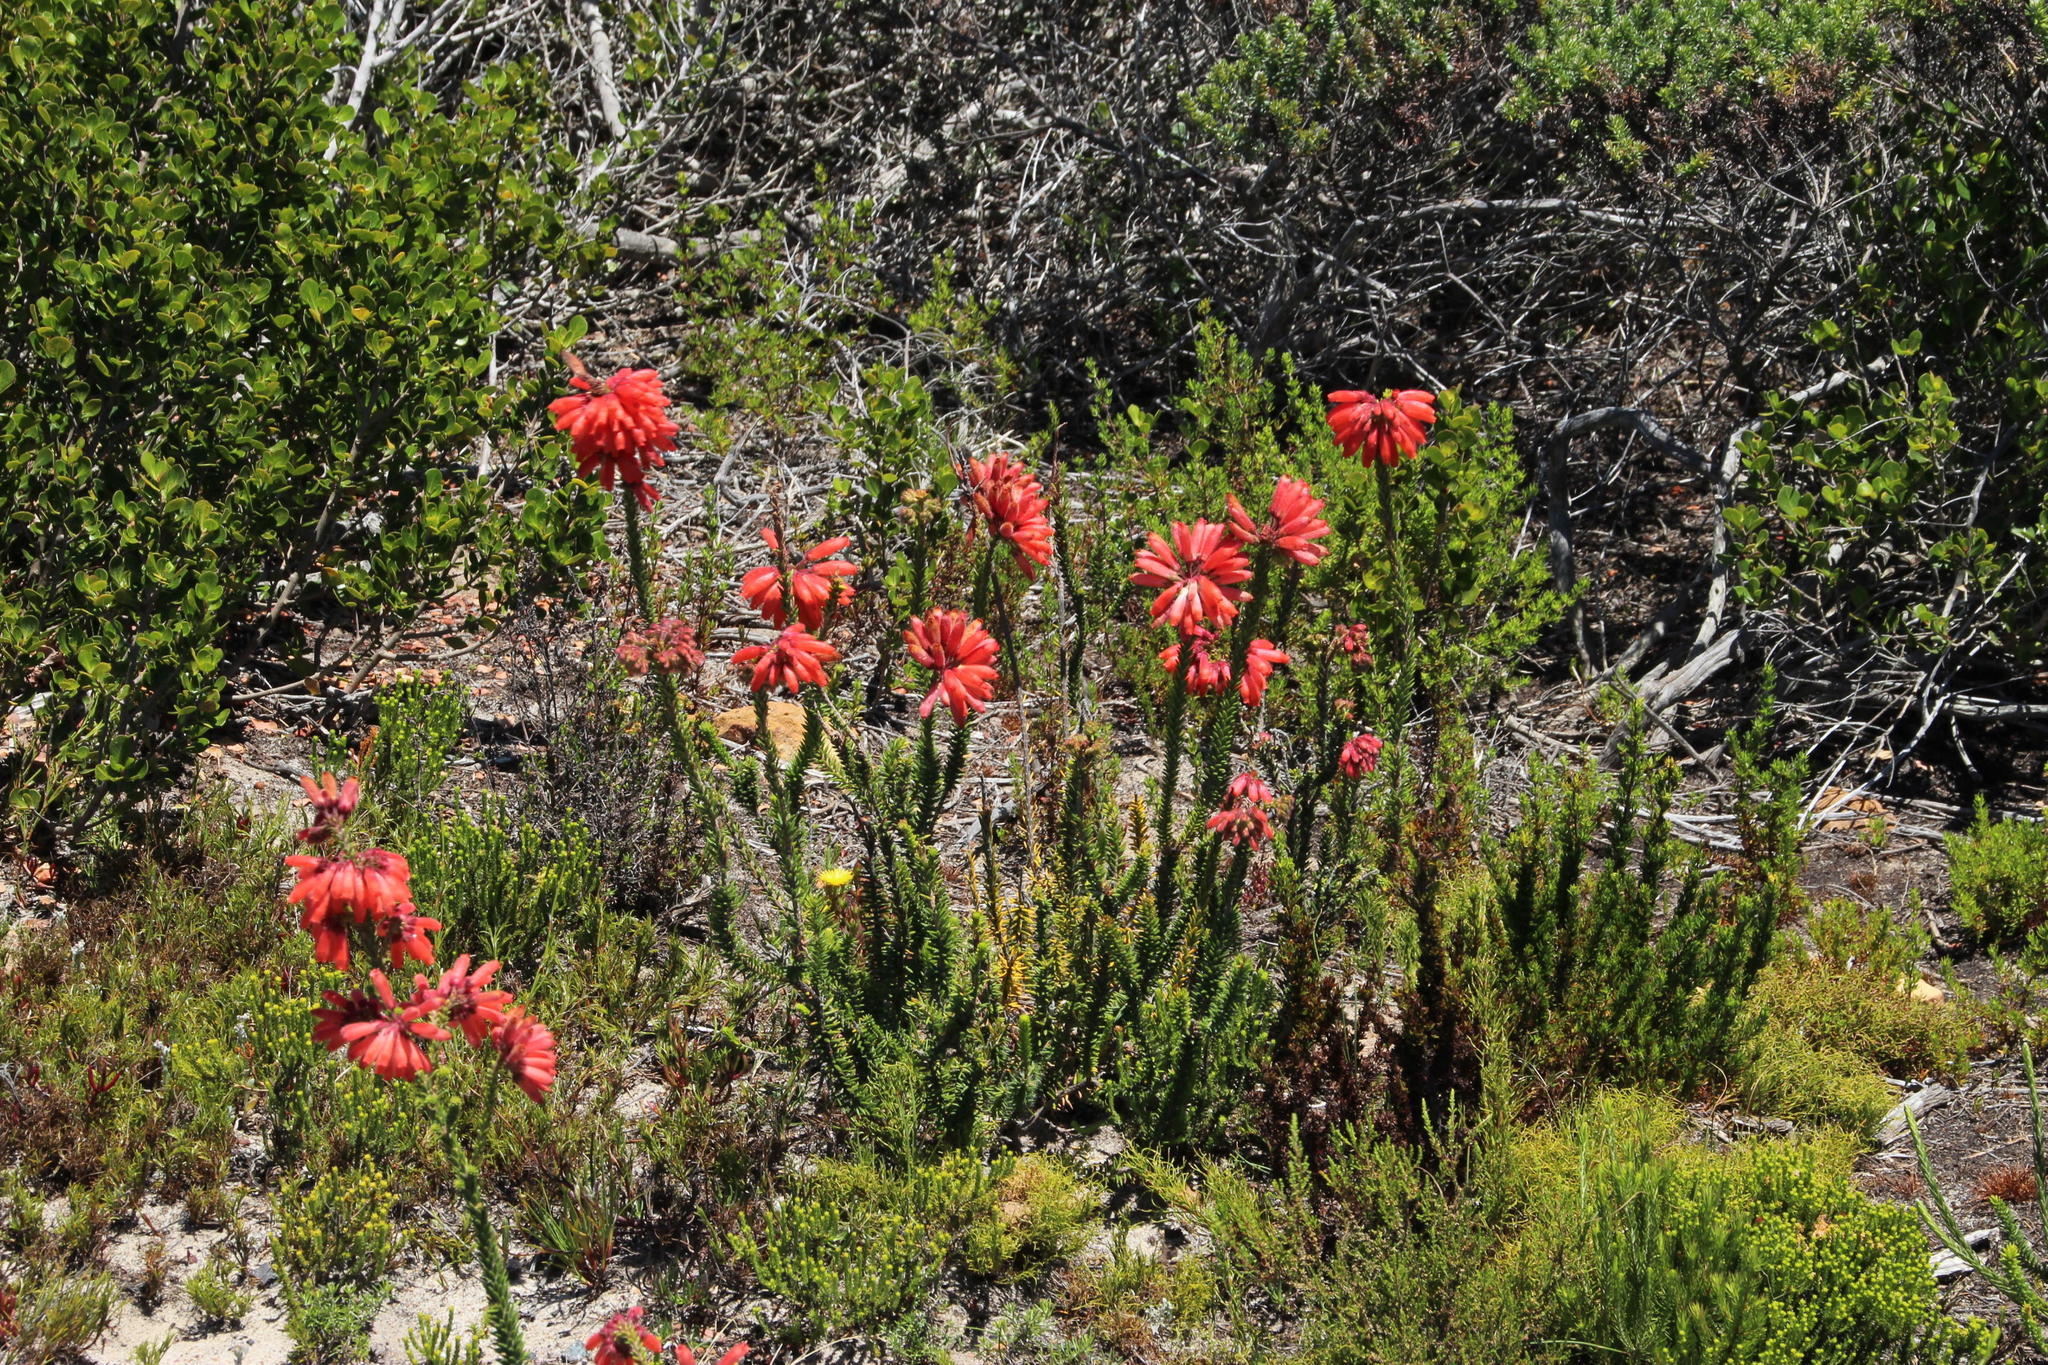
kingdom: Plantae
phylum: Tracheophyta
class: Magnoliopsida
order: Ericales
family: Ericaceae
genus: Erica
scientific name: Erica cerinthoides
